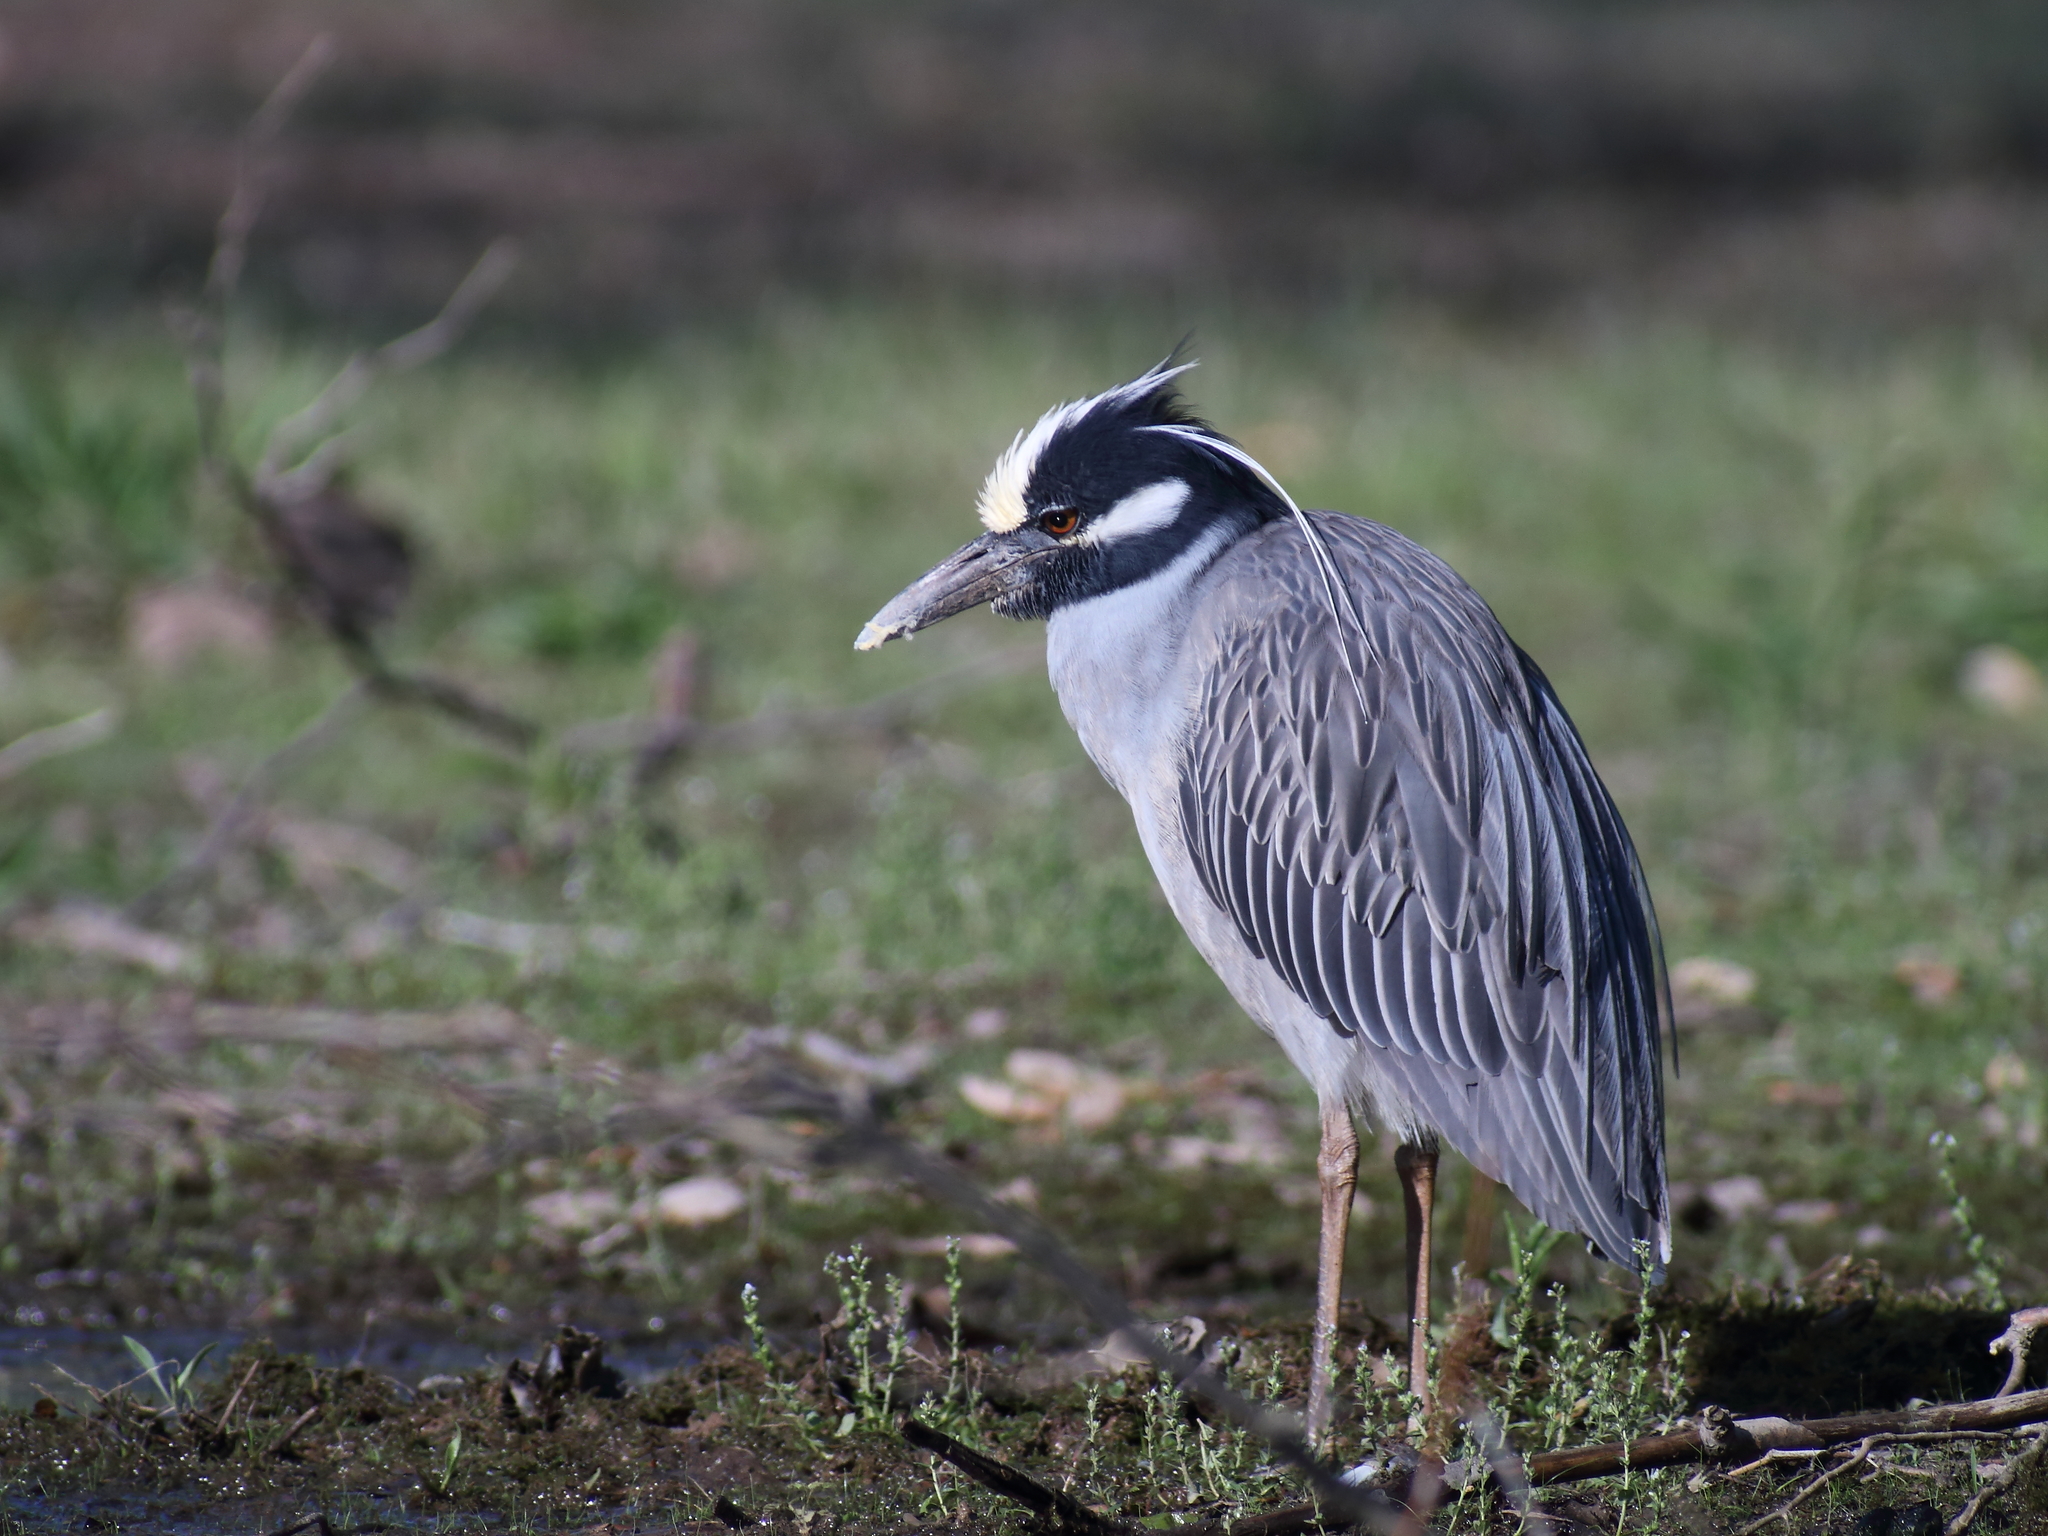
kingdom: Animalia
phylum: Chordata
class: Aves
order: Pelecaniformes
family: Ardeidae
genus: Nyctanassa
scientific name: Nyctanassa violacea
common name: Yellow-crowned night heron
